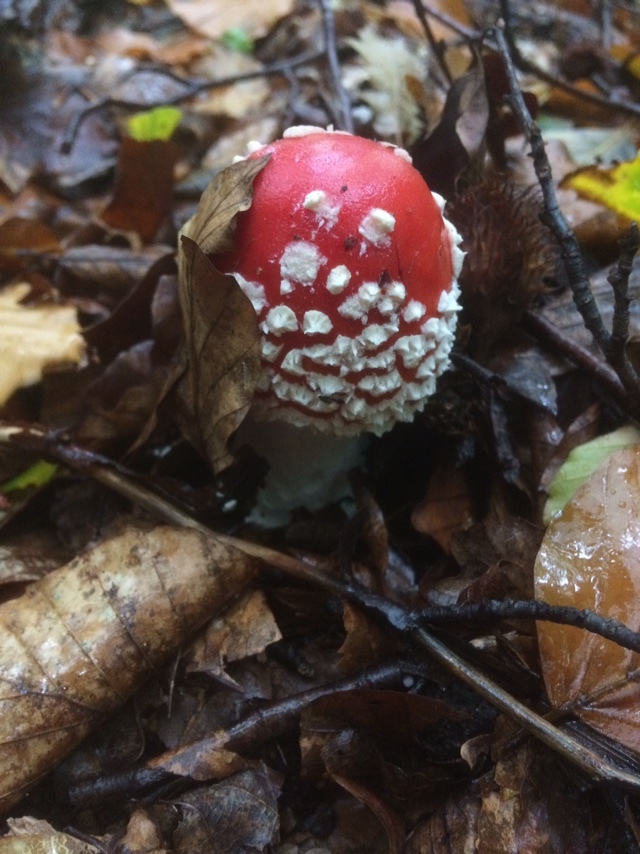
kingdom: Fungi
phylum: Basidiomycota
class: Agaricomycetes
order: Agaricales
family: Amanitaceae
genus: Amanita
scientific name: Amanita muscaria
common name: Fly agaric
